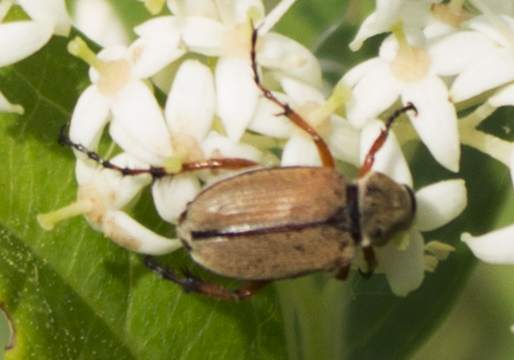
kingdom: Animalia
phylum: Arthropoda
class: Insecta
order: Coleoptera
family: Scarabaeidae
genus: Macrodactylus
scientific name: Macrodactylus subspinosus
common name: American rose chafer
